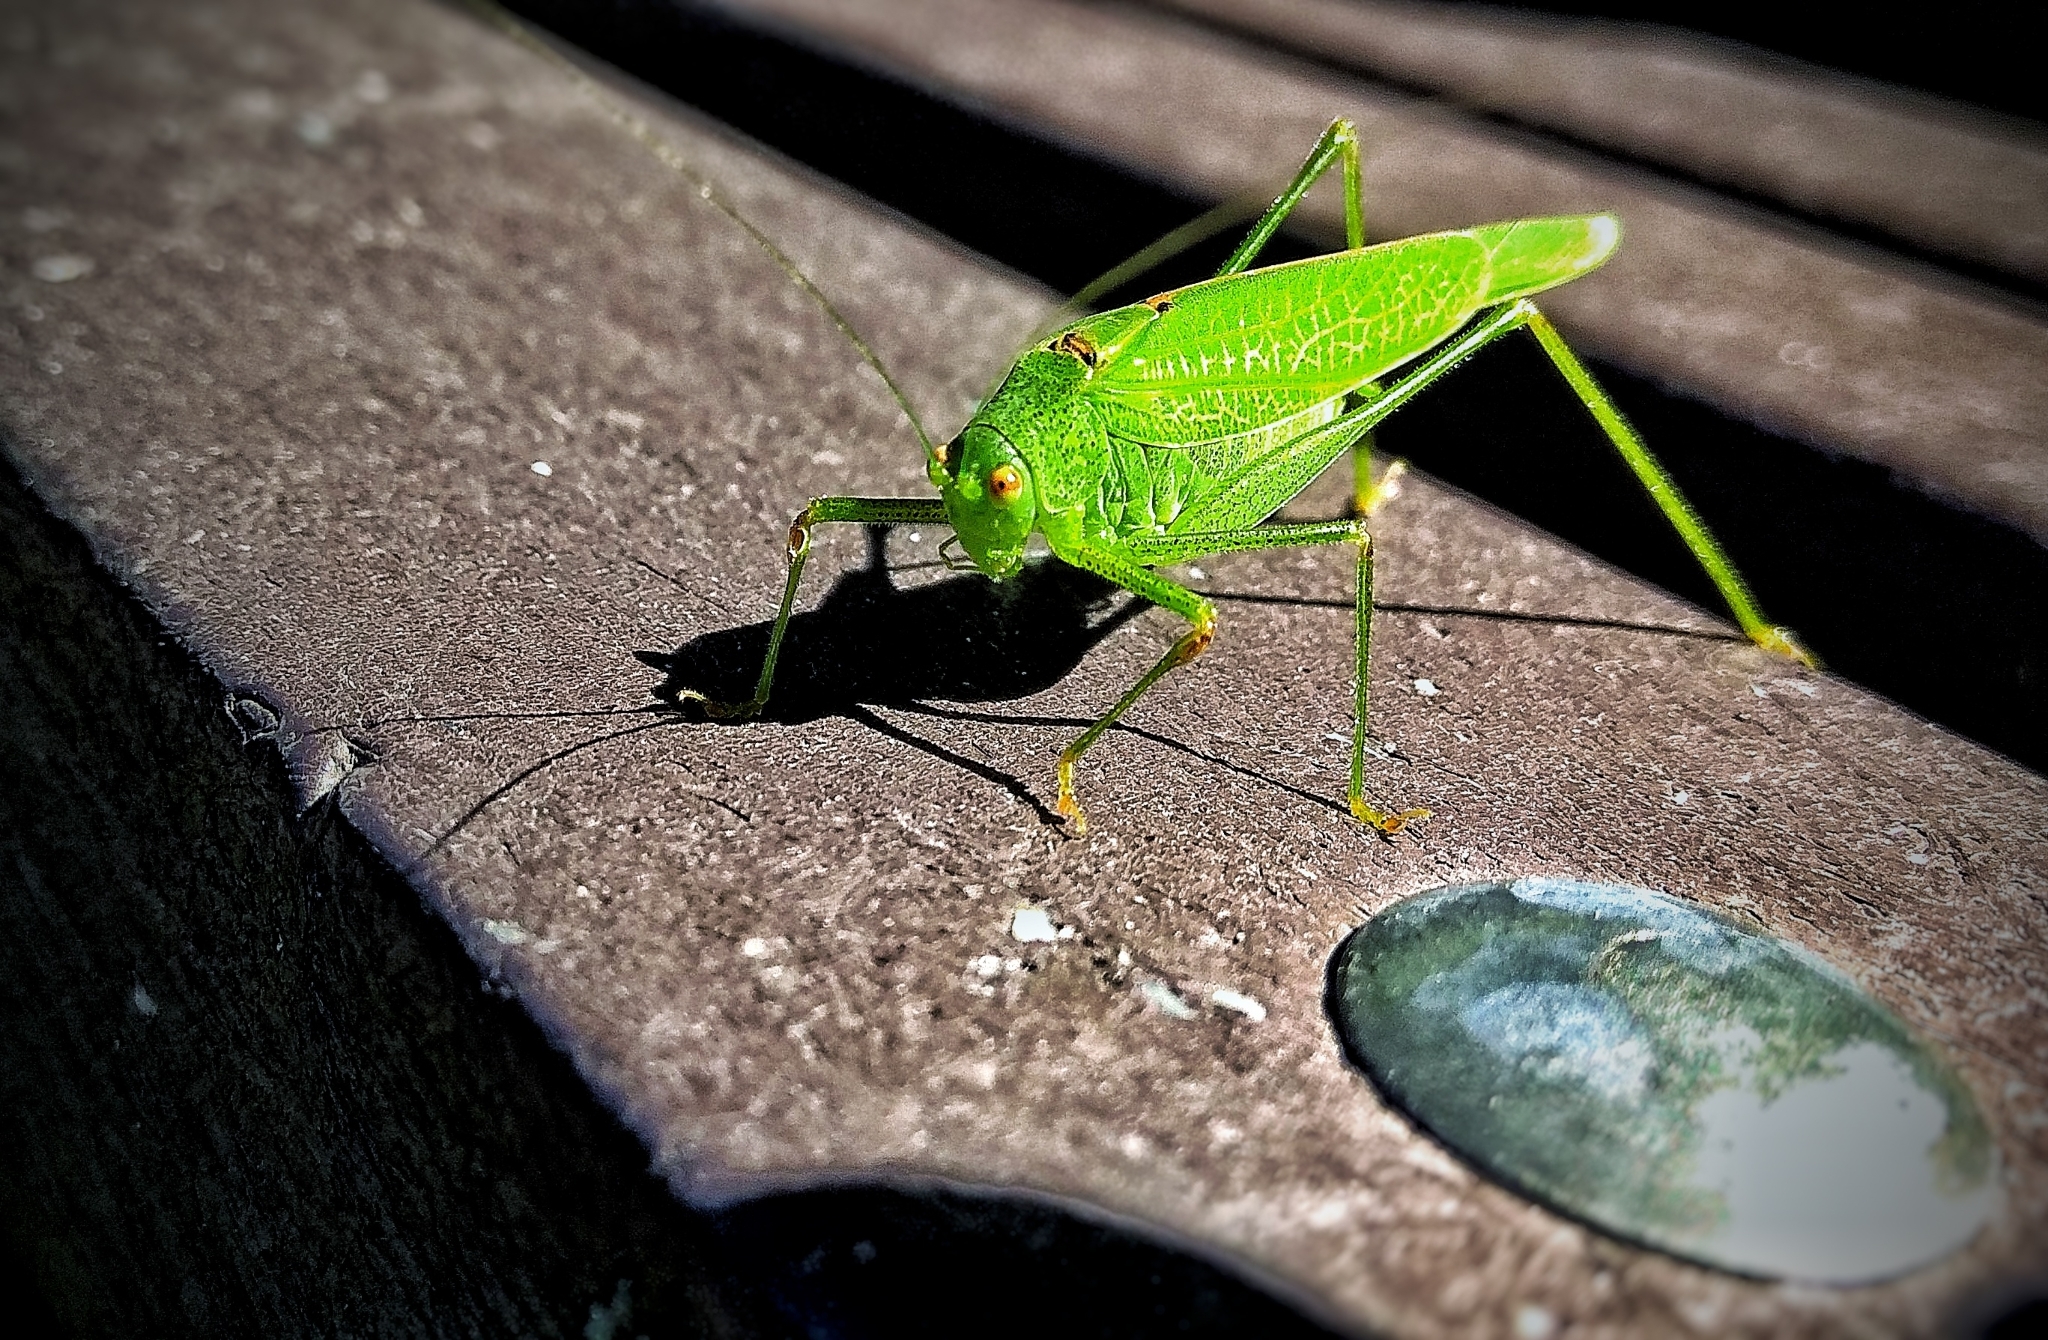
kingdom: Animalia
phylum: Arthropoda
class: Insecta
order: Orthoptera
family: Tettigoniidae
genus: Phaneroptera
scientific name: Phaneroptera nana
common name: Southern sickle bush-cricket
